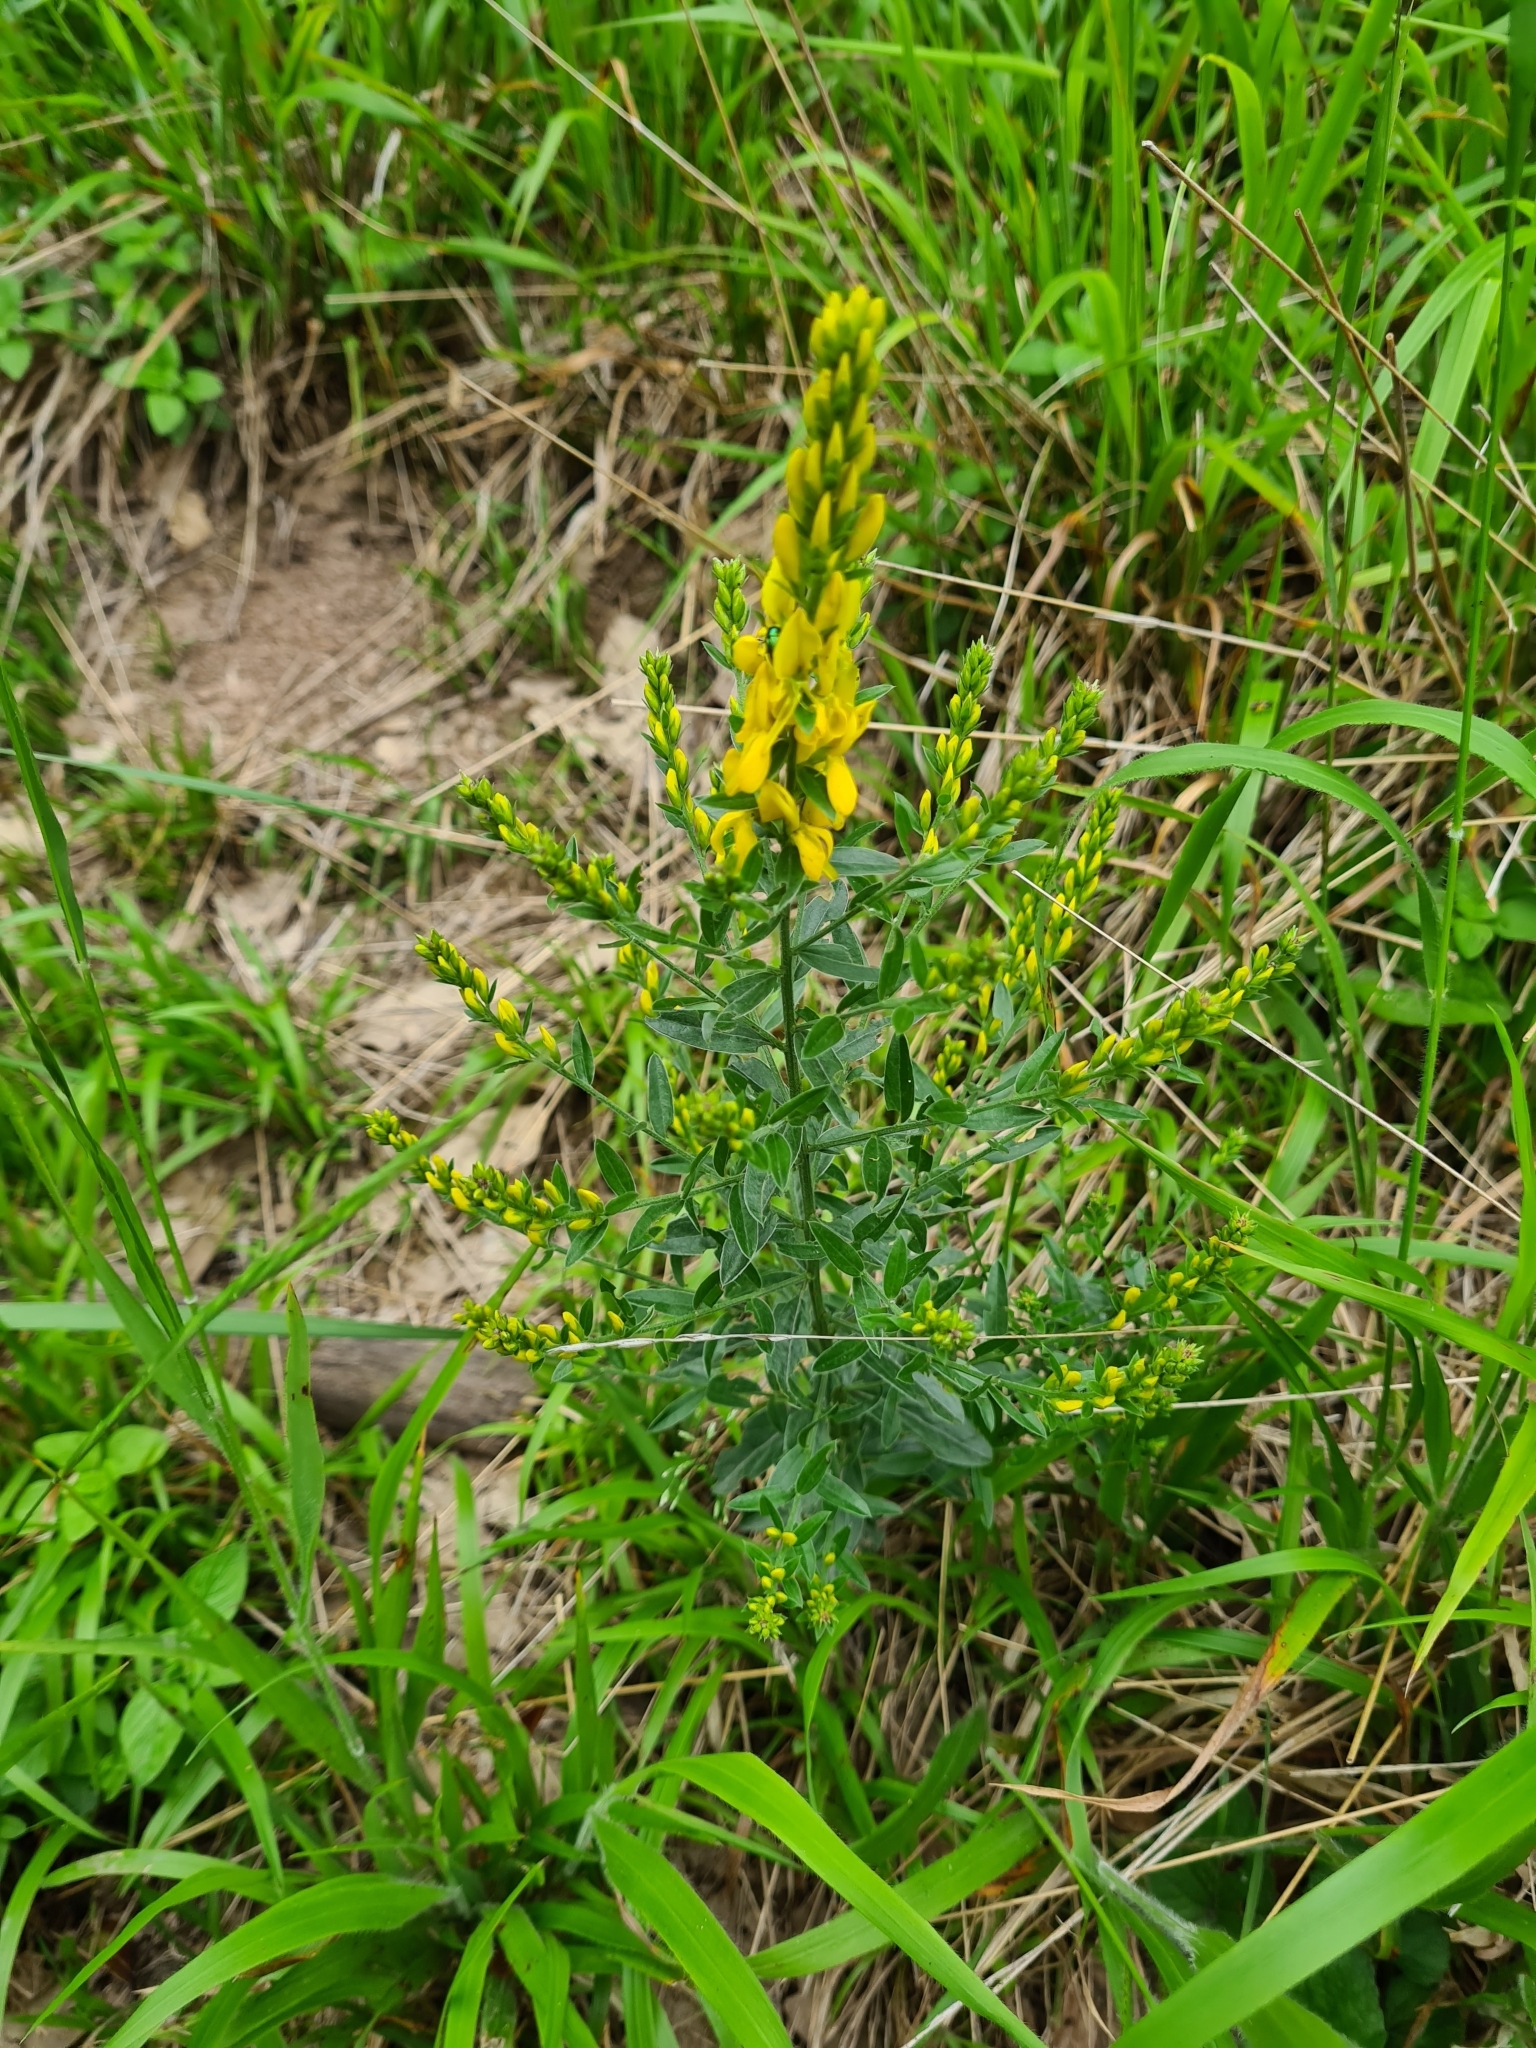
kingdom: Plantae
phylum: Tracheophyta
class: Magnoliopsida
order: Fabales
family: Fabaceae
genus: Genista
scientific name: Genista tinctoria
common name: Dyer's greenweed
